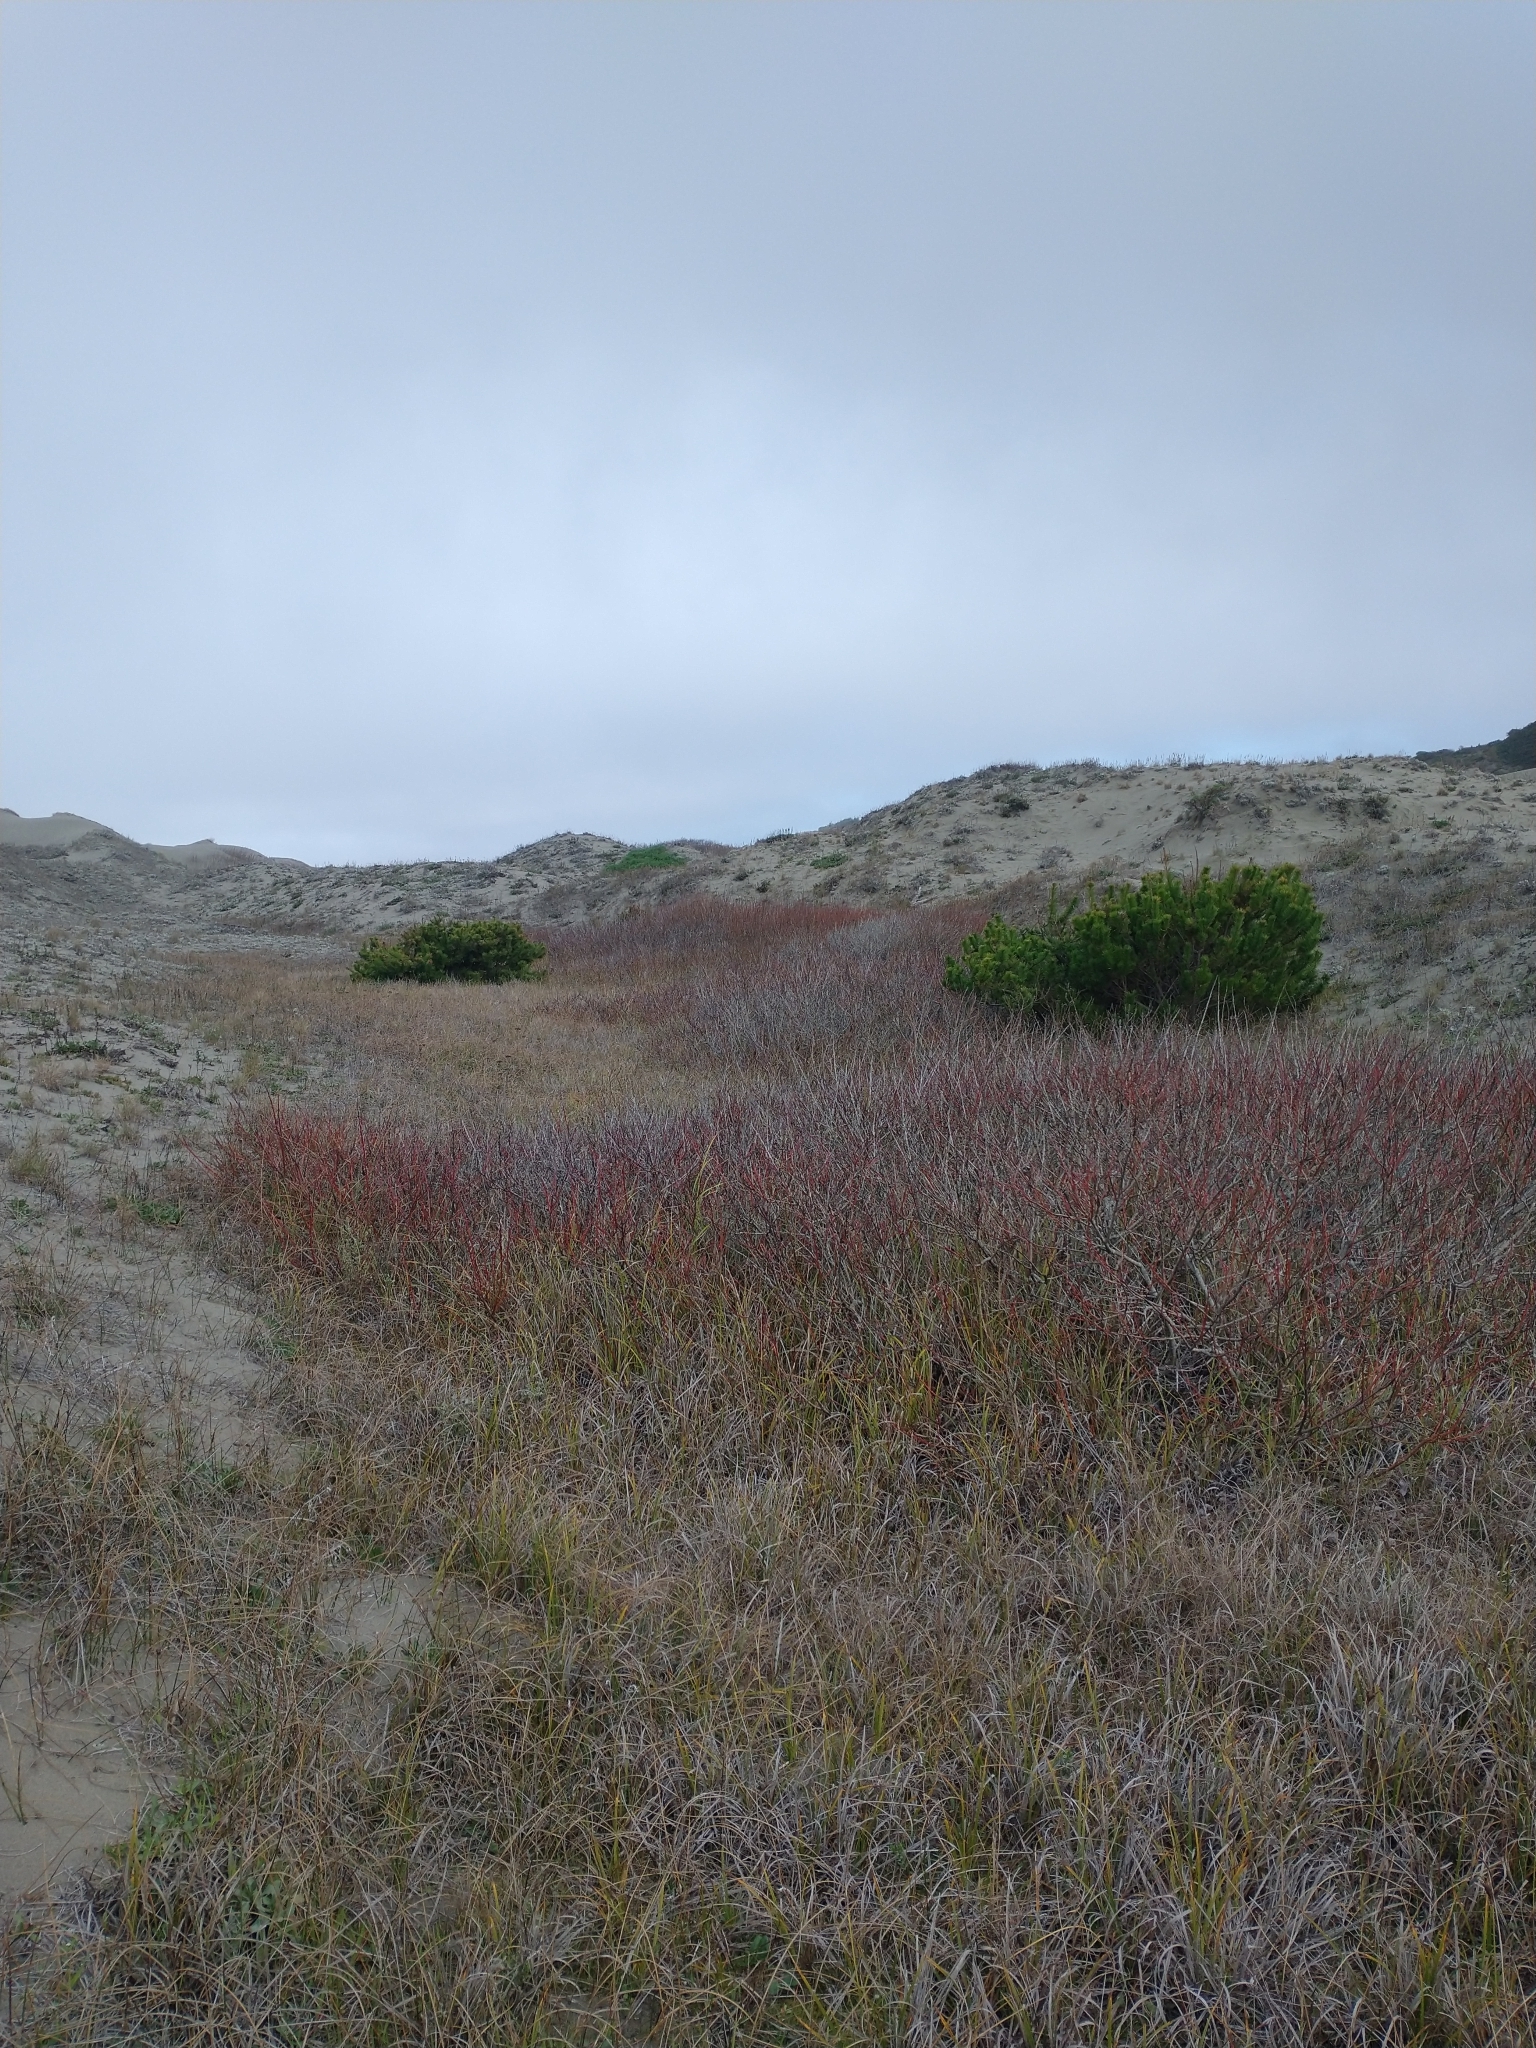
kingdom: Plantae
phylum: Tracheophyta
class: Pinopsida
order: Pinales
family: Pinaceae
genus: Pinus
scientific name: Pinus contorta
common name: Lodgepole pine
